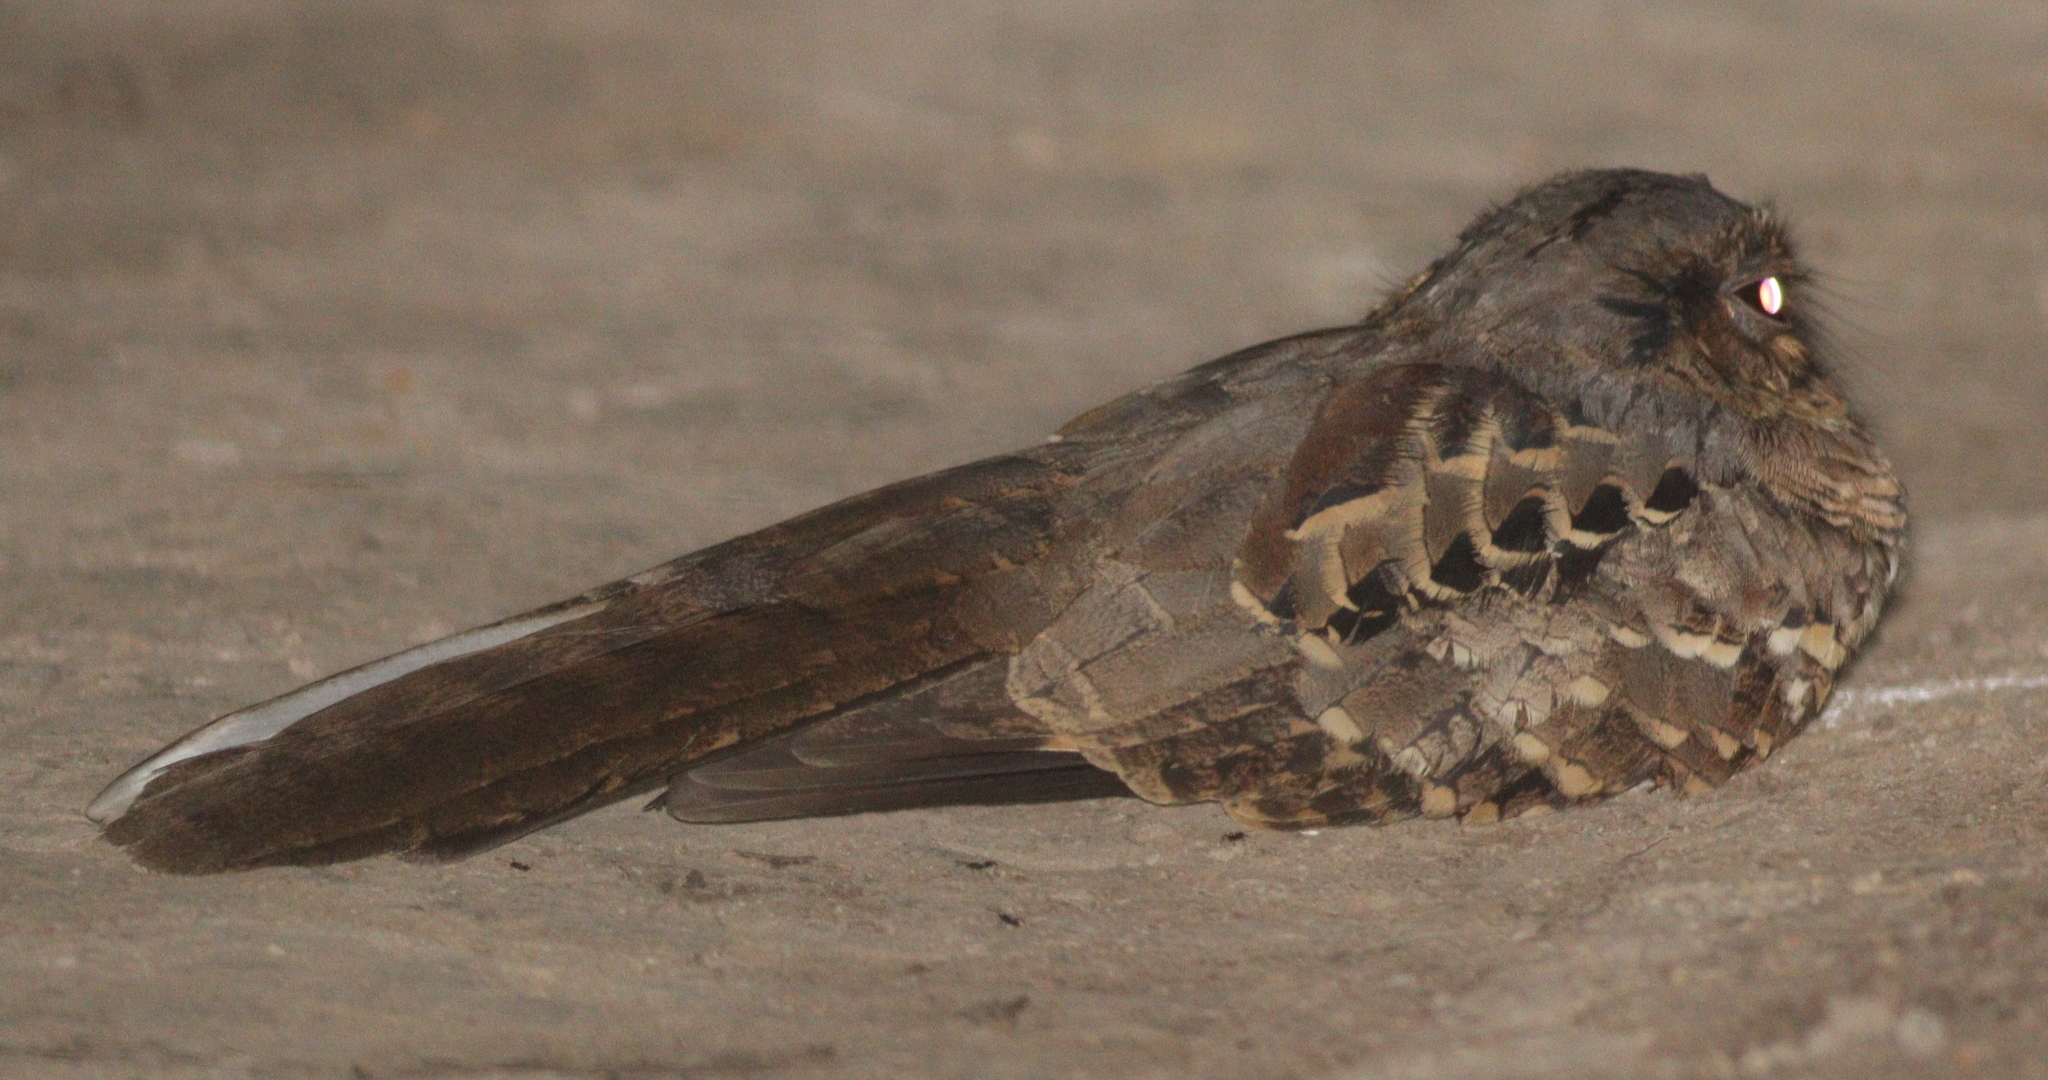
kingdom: Animalia
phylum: Chordata
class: Aves
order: Caprimulgiformes
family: Caprimulgidae
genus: Nyctidromus
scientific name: Nyctidromus albicollis
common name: Pauraque
